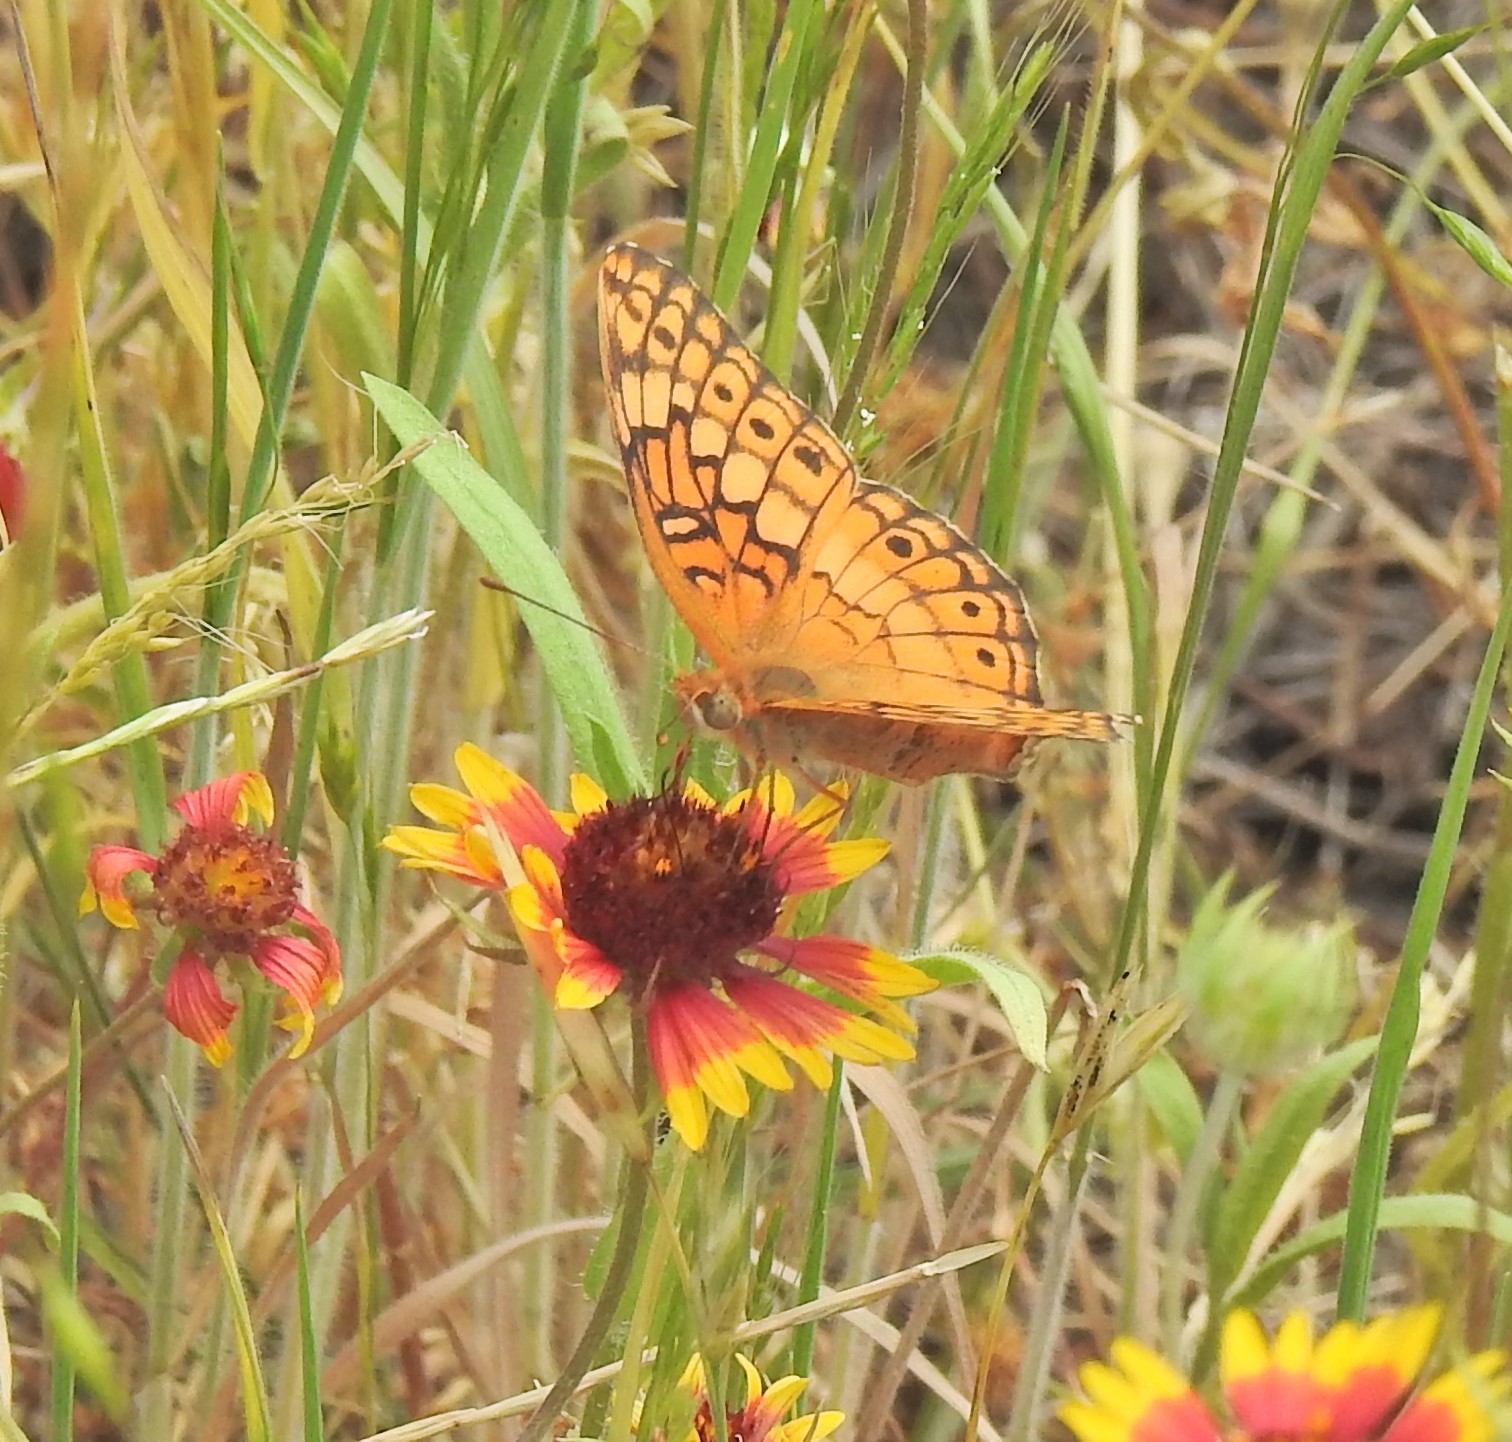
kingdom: Animalia
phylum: Arthropoda
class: Insecta
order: Lepidoptera
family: Nymphalidae
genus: Euptoieta
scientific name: Euptoieta claudia
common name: Variegated fritillary
